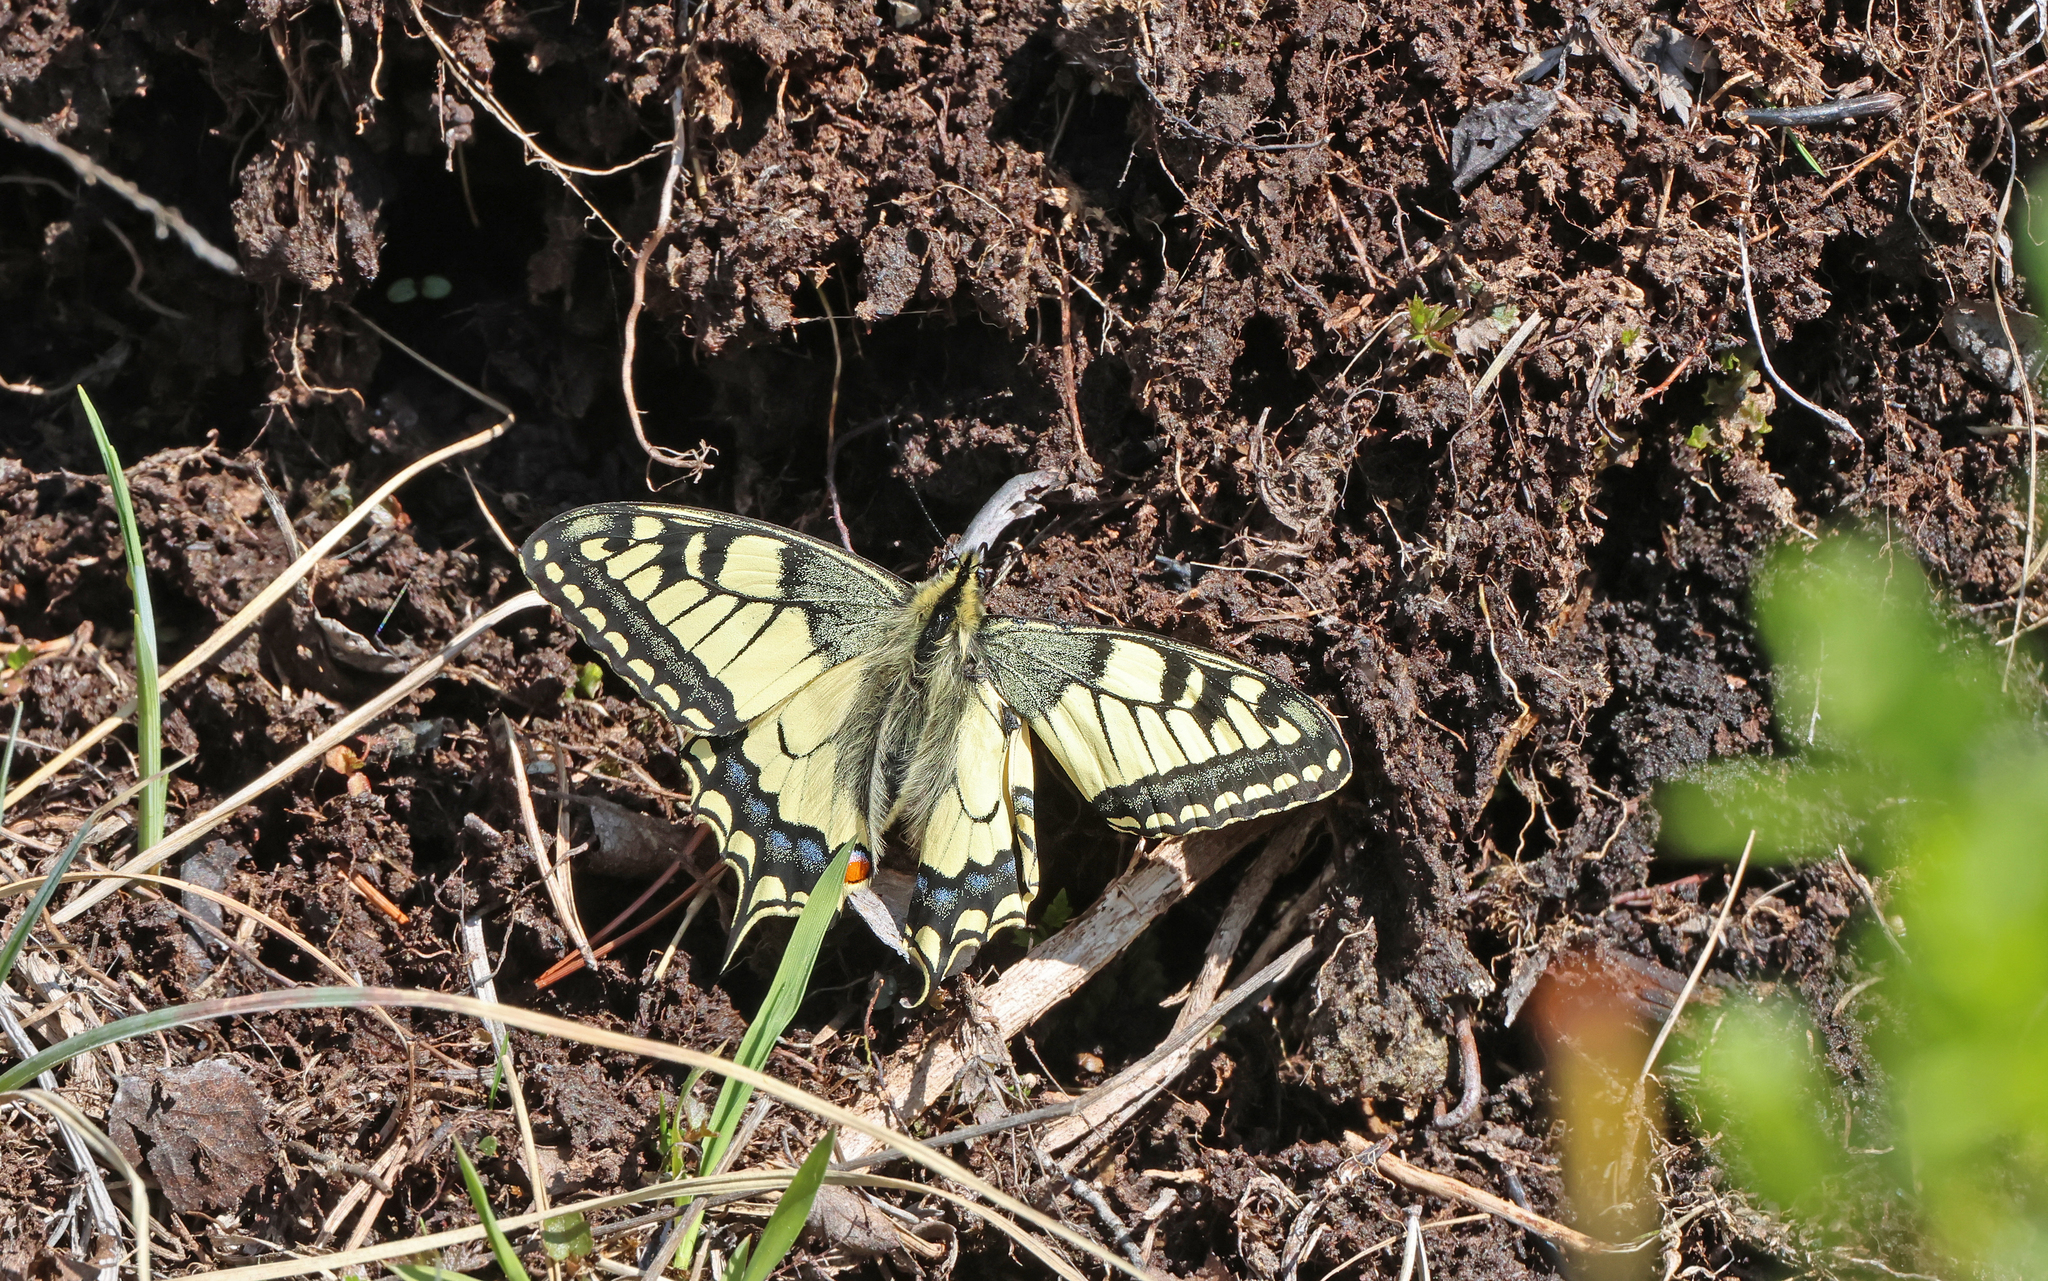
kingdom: Animalia
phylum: Arthropoda
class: Insecta
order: Lepidoptera
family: Papilionidae
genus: Papilio
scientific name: Papilio machaon
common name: Swallowtail
